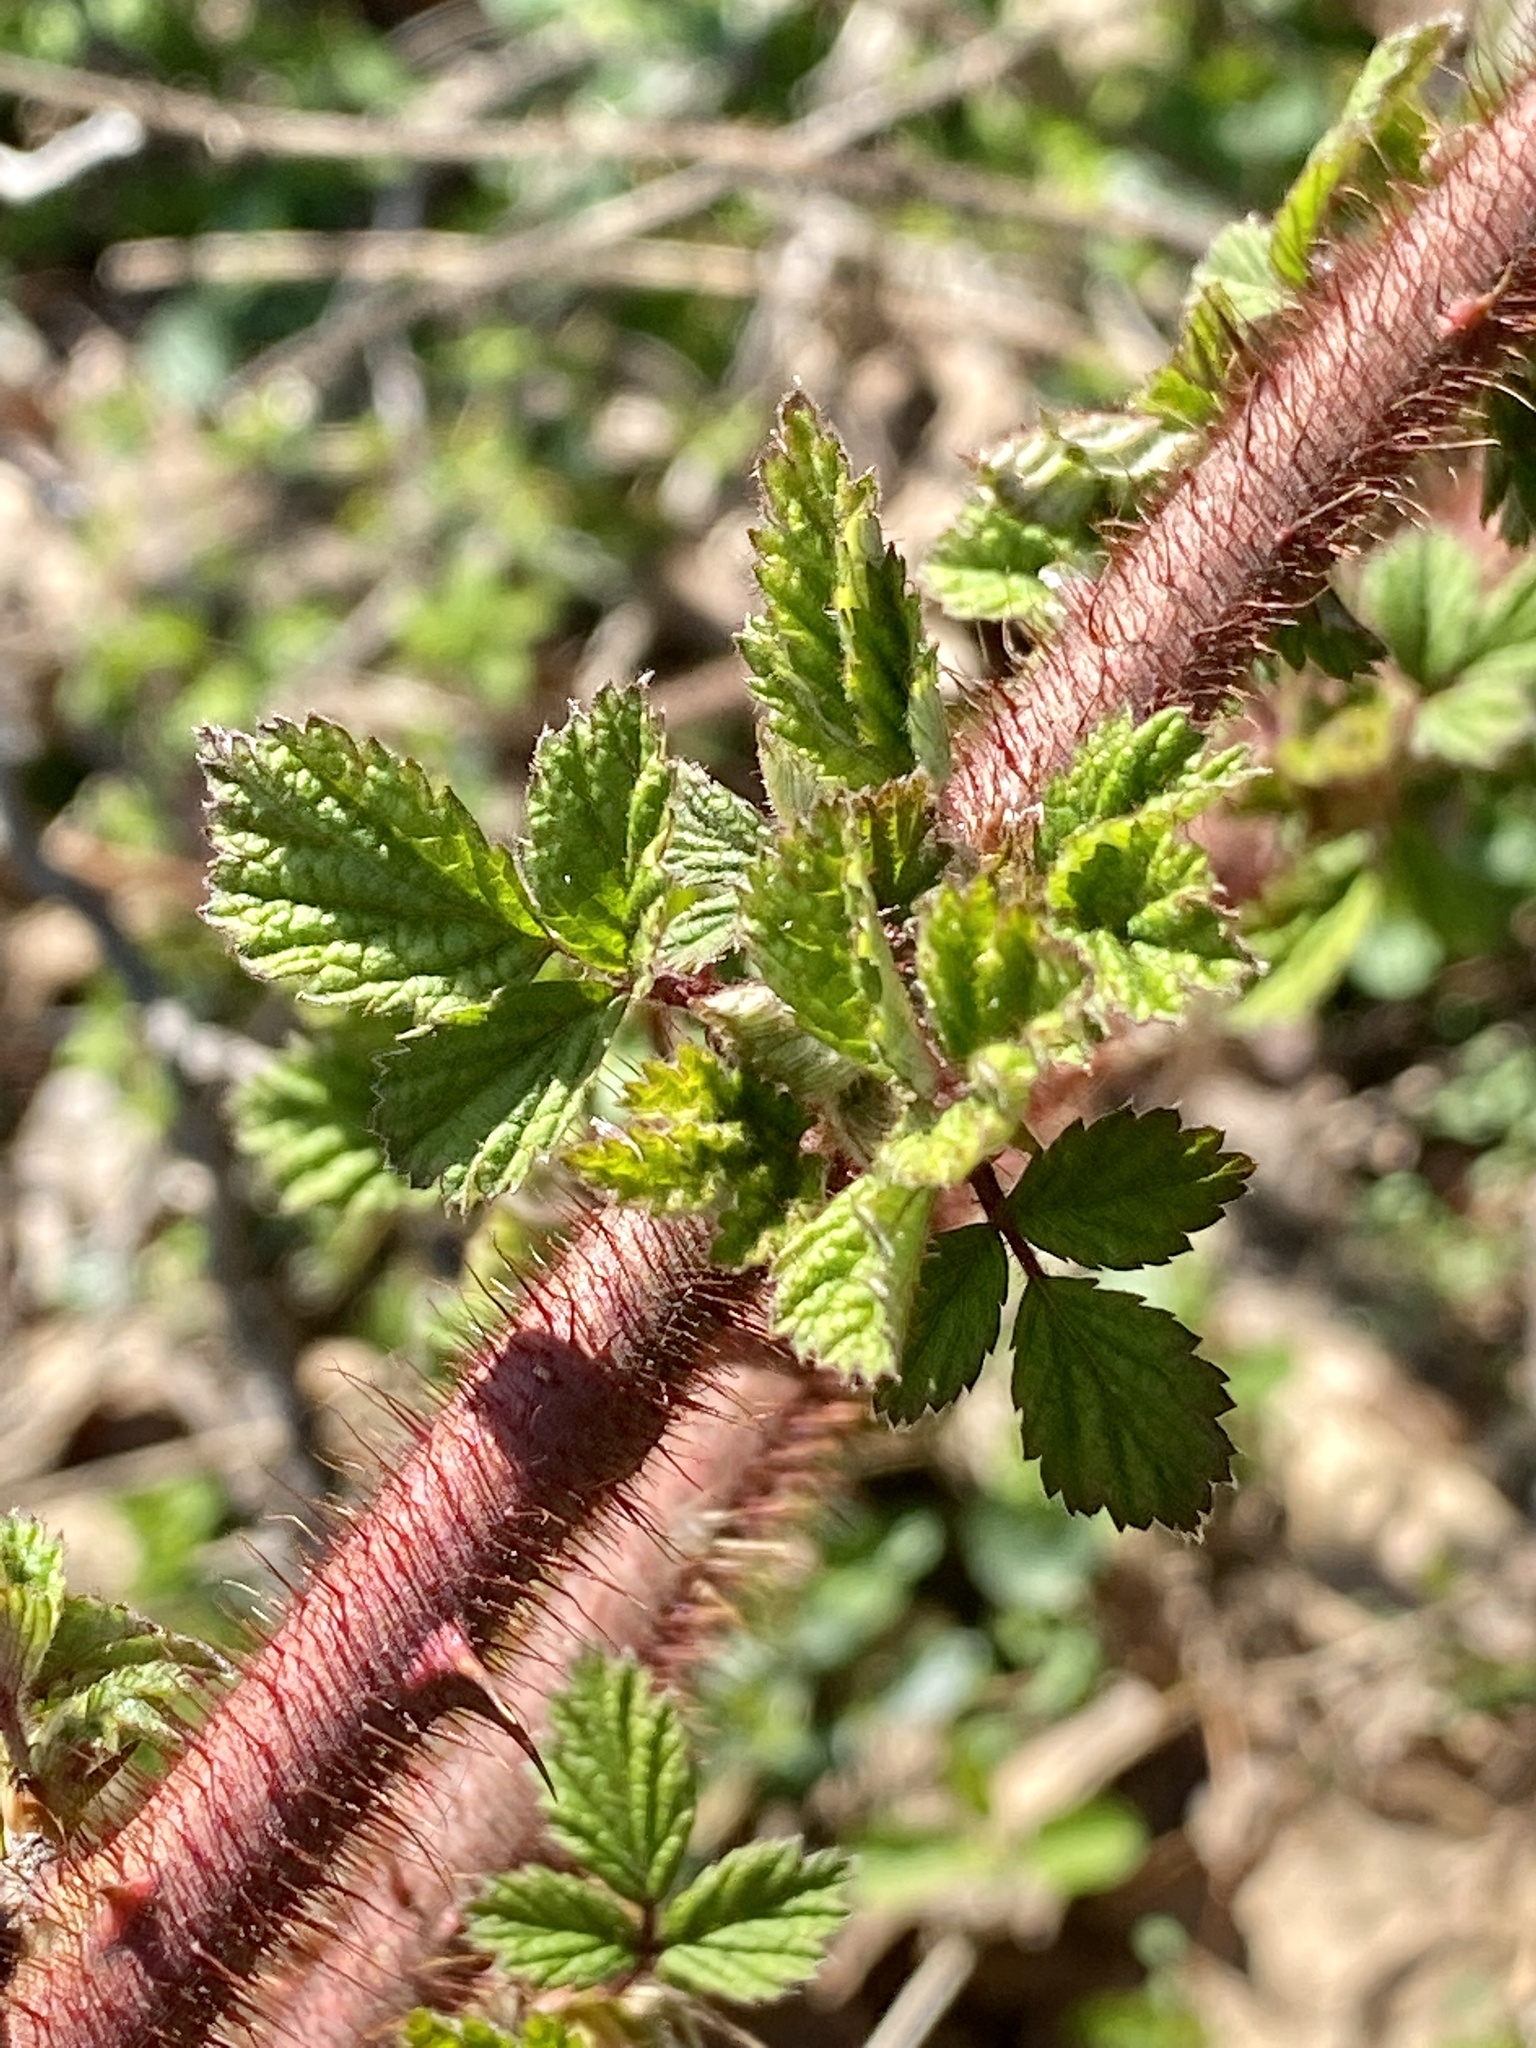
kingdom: Plantae
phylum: Tracheophyta
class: Magnoliopsida
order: Rosales
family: Rosaceae
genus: Rubus
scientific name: Rubus phoenicolasius
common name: Japanese wineberry
